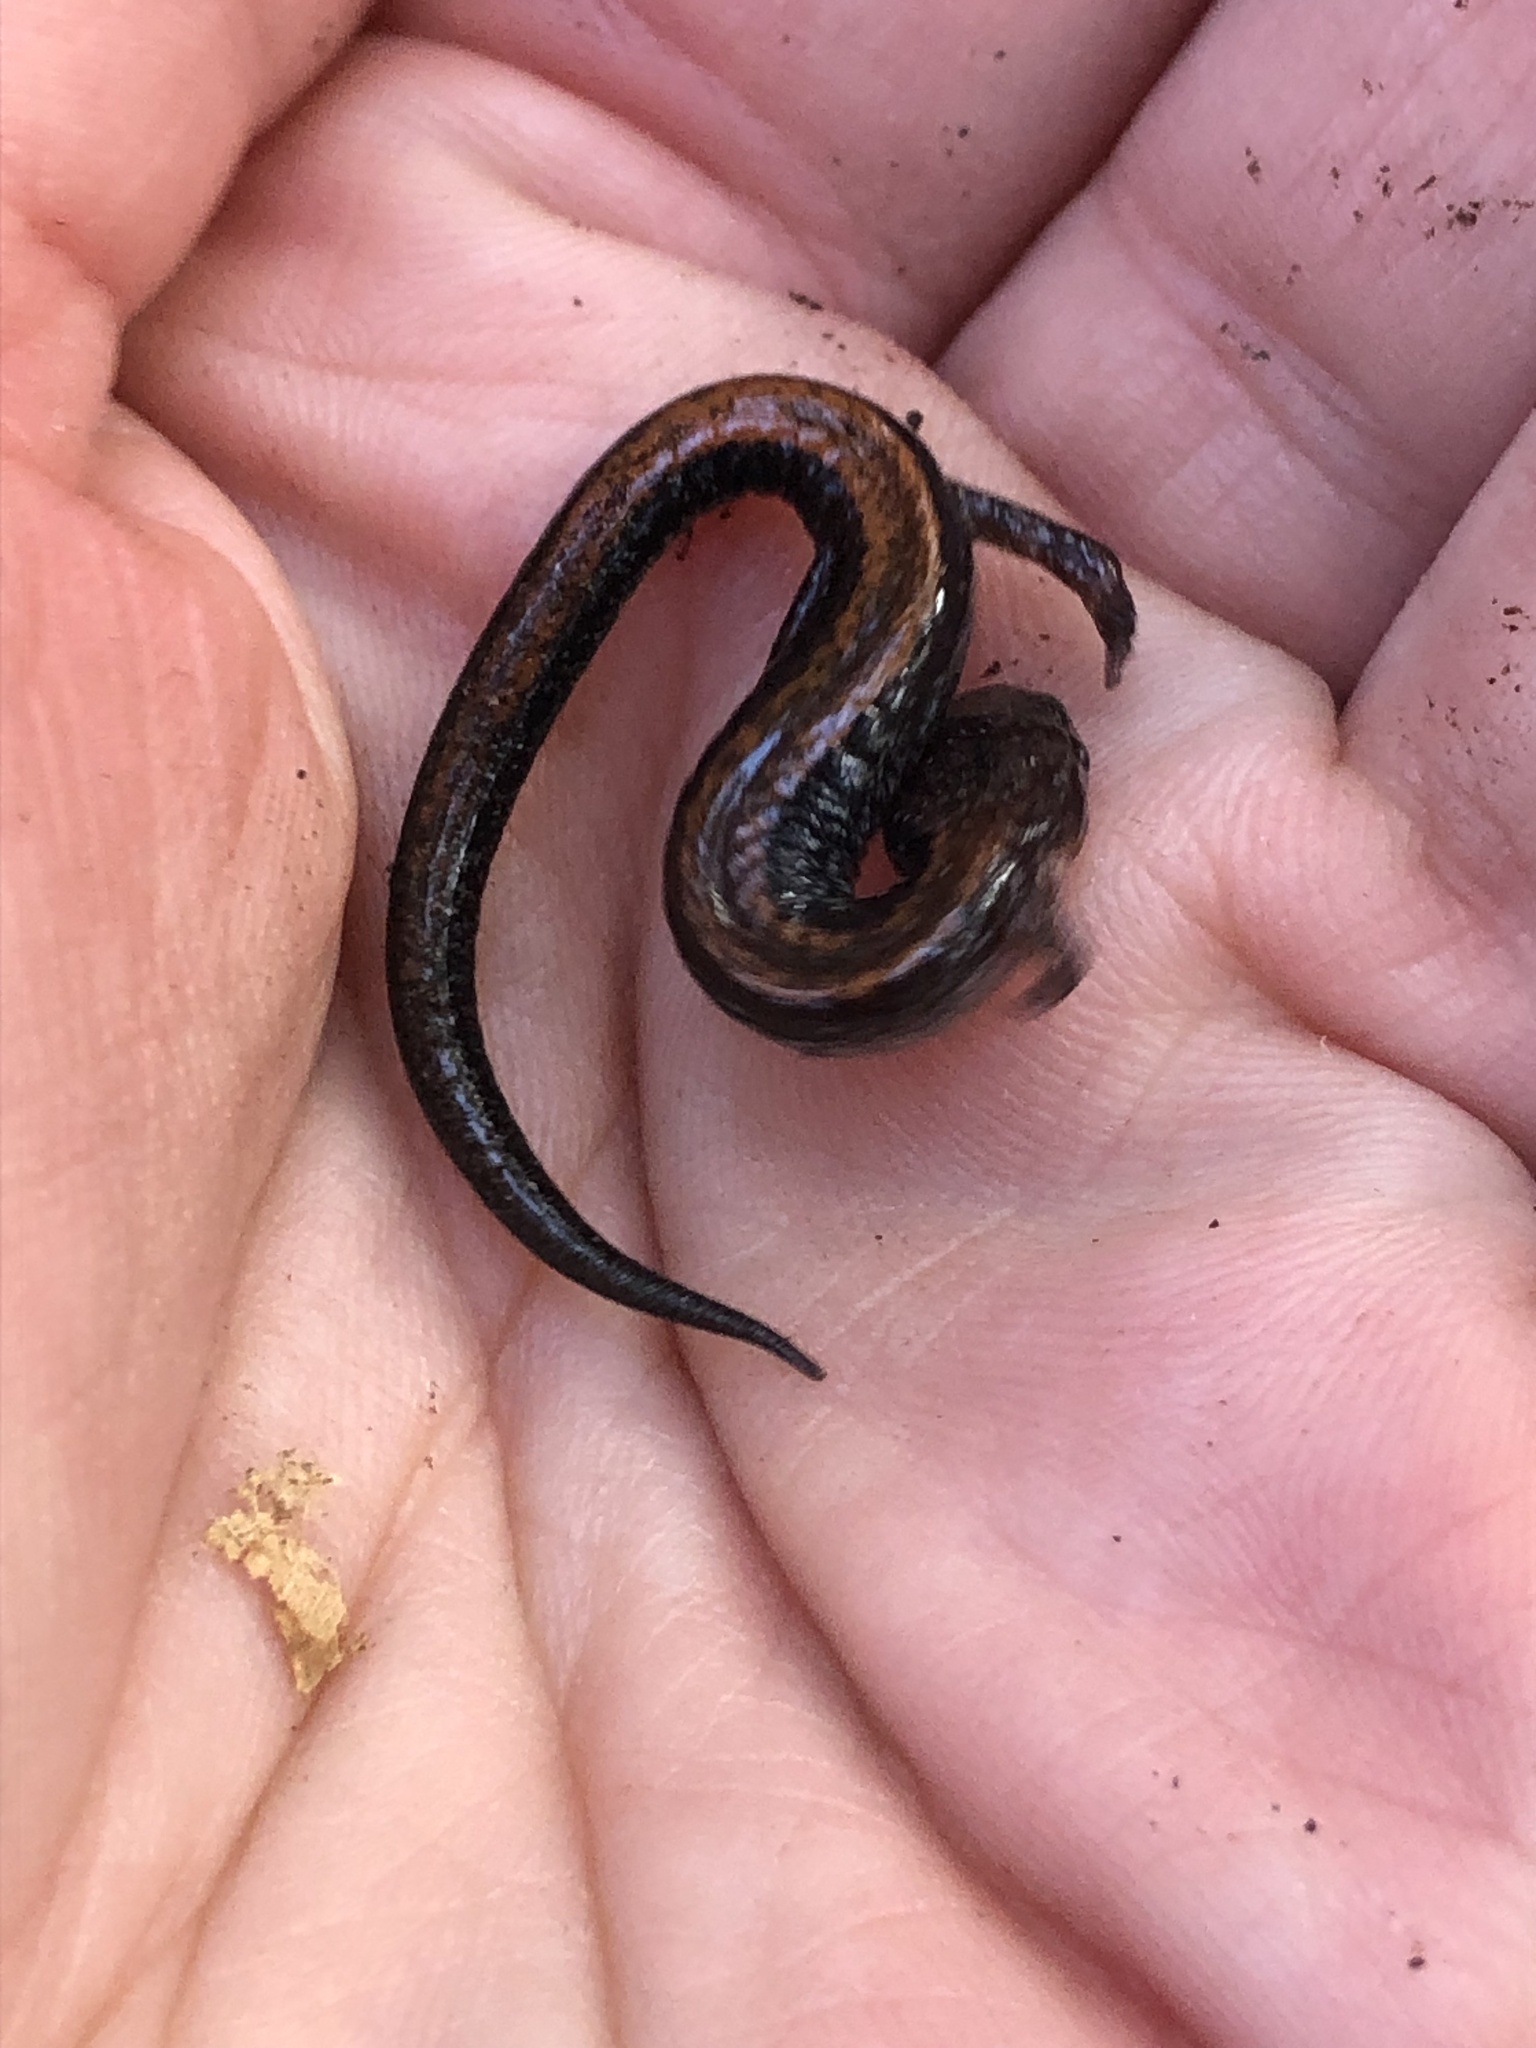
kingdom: Animalia
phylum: Chordata
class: Amphibia
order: Caudata
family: Plethodontidae
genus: Plethodon
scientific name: Plethodon cinereus
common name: Redback salamander
